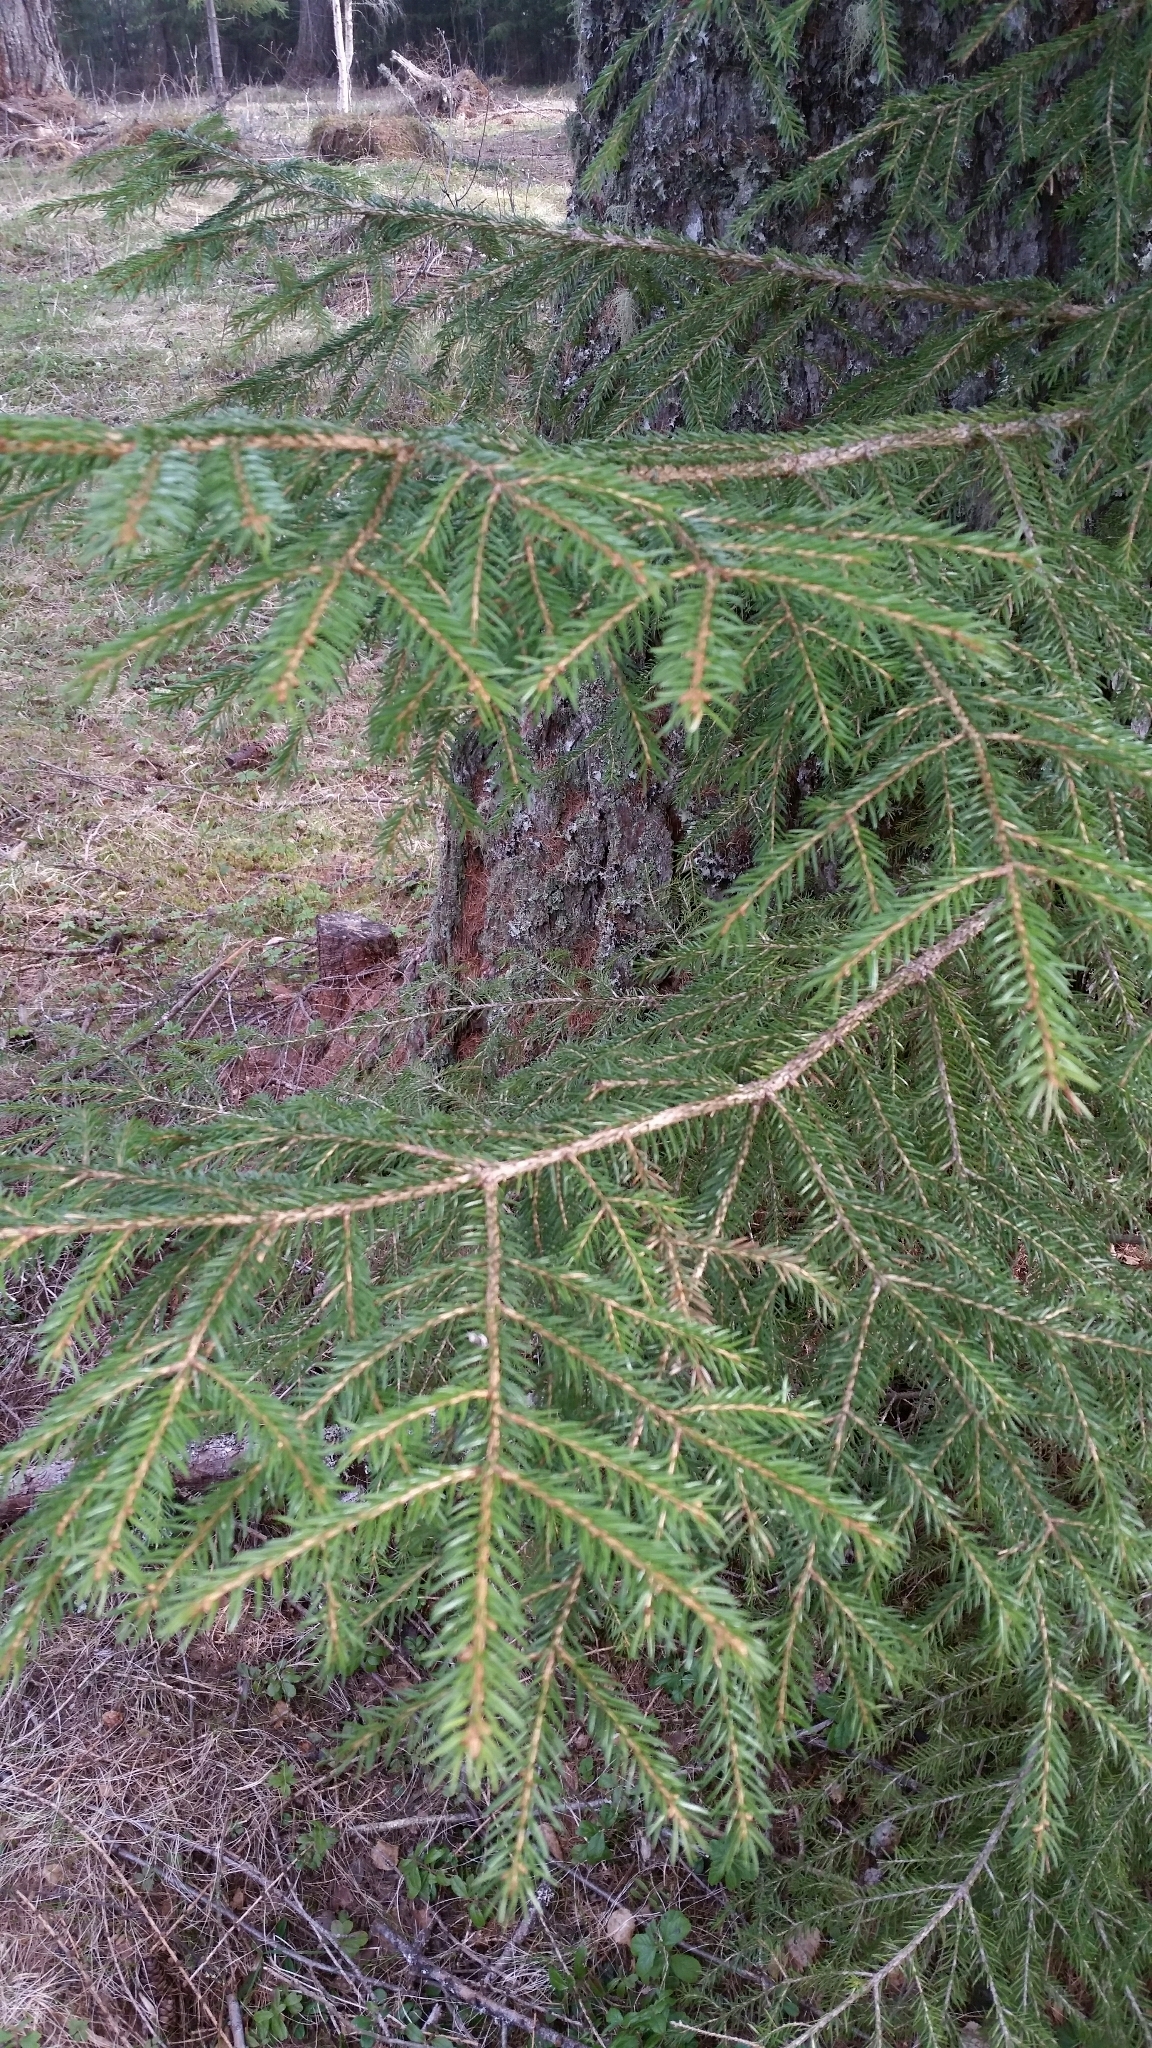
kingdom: Plantae
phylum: Tracheophyta
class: Pinopsida
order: Pinales
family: Pinaceae
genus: Picea
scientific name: Picea abies
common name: Norway spruce
